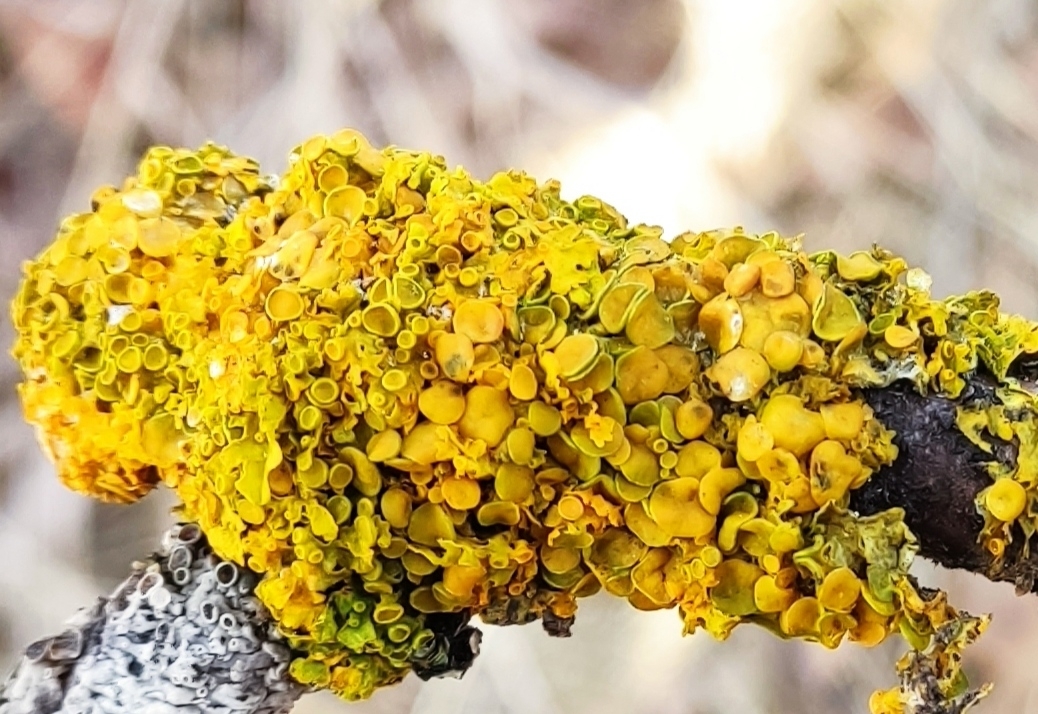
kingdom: Fungi
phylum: Ascomycota
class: Lecanoromycetes
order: Teloschistales
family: Teloschistaceae
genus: Xanthoria
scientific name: Xanthoria parietina
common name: Common orange lichen
